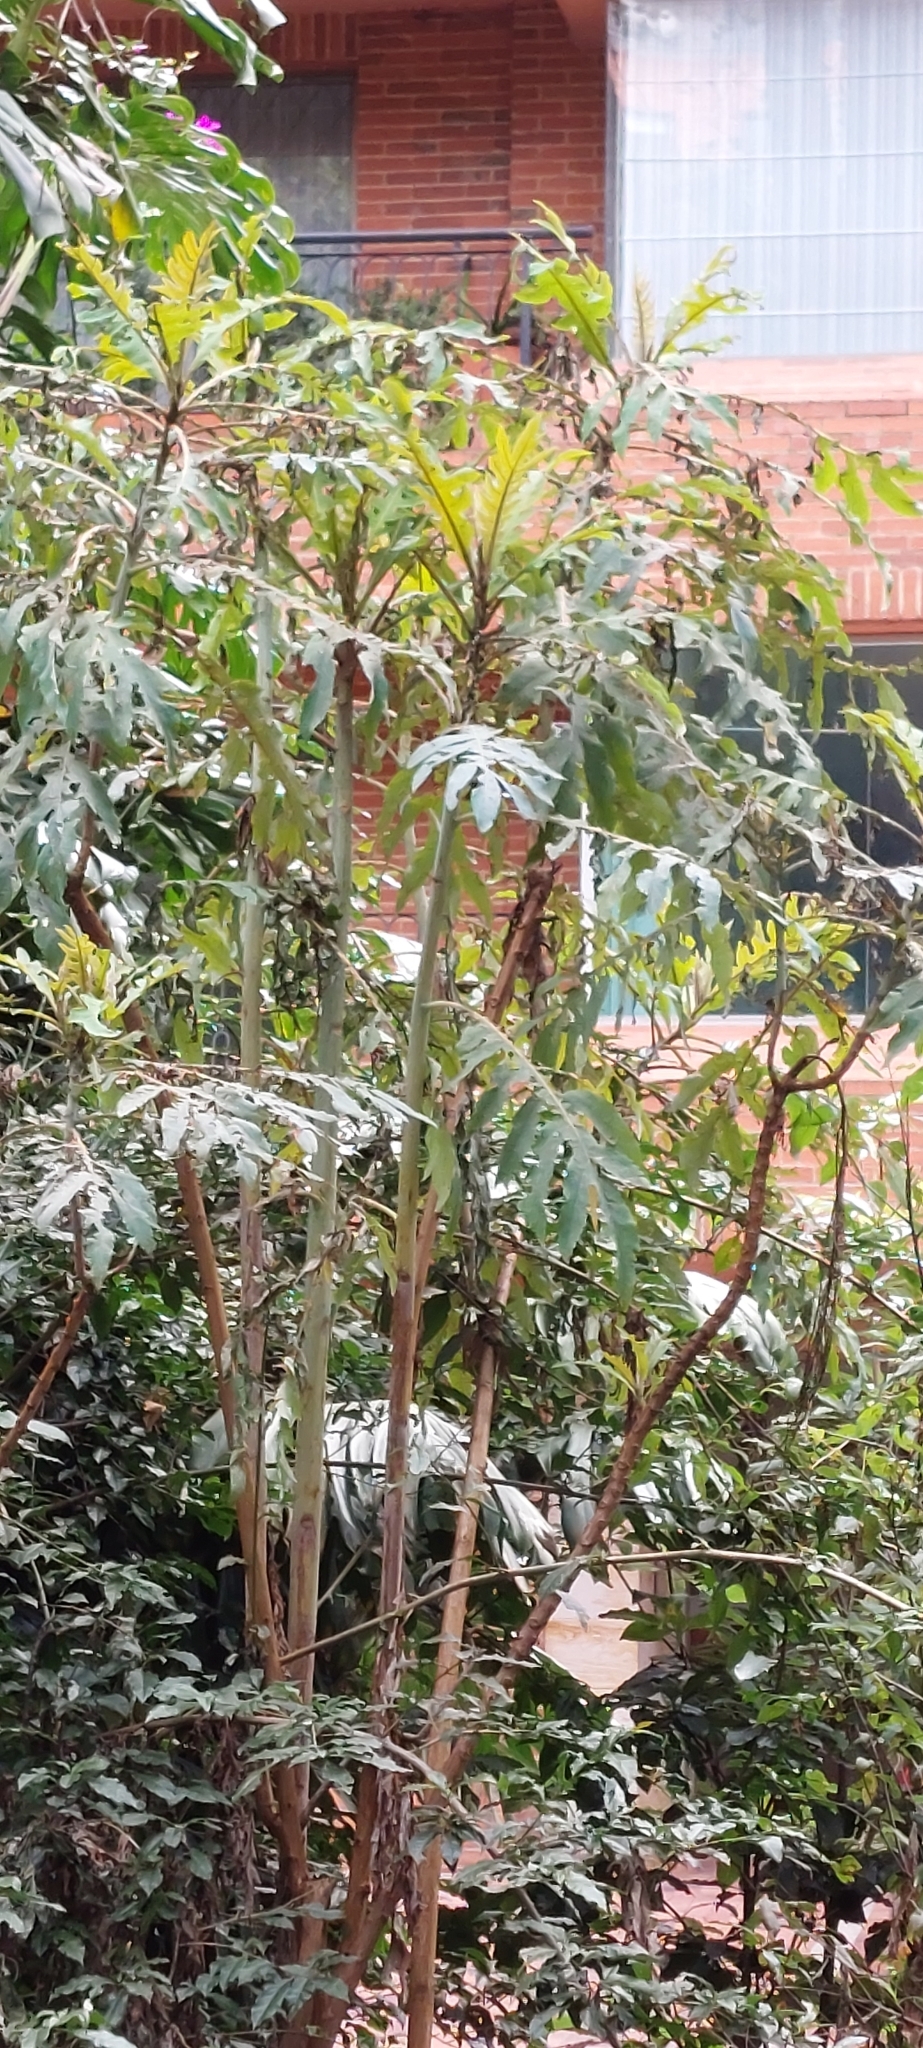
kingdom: Plantae
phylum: Tracheophyta
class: Magnoliopsida
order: Ranunculales
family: Papaveraceae
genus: Bocconia
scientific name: Bocconia frutescens
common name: Tree poppy
